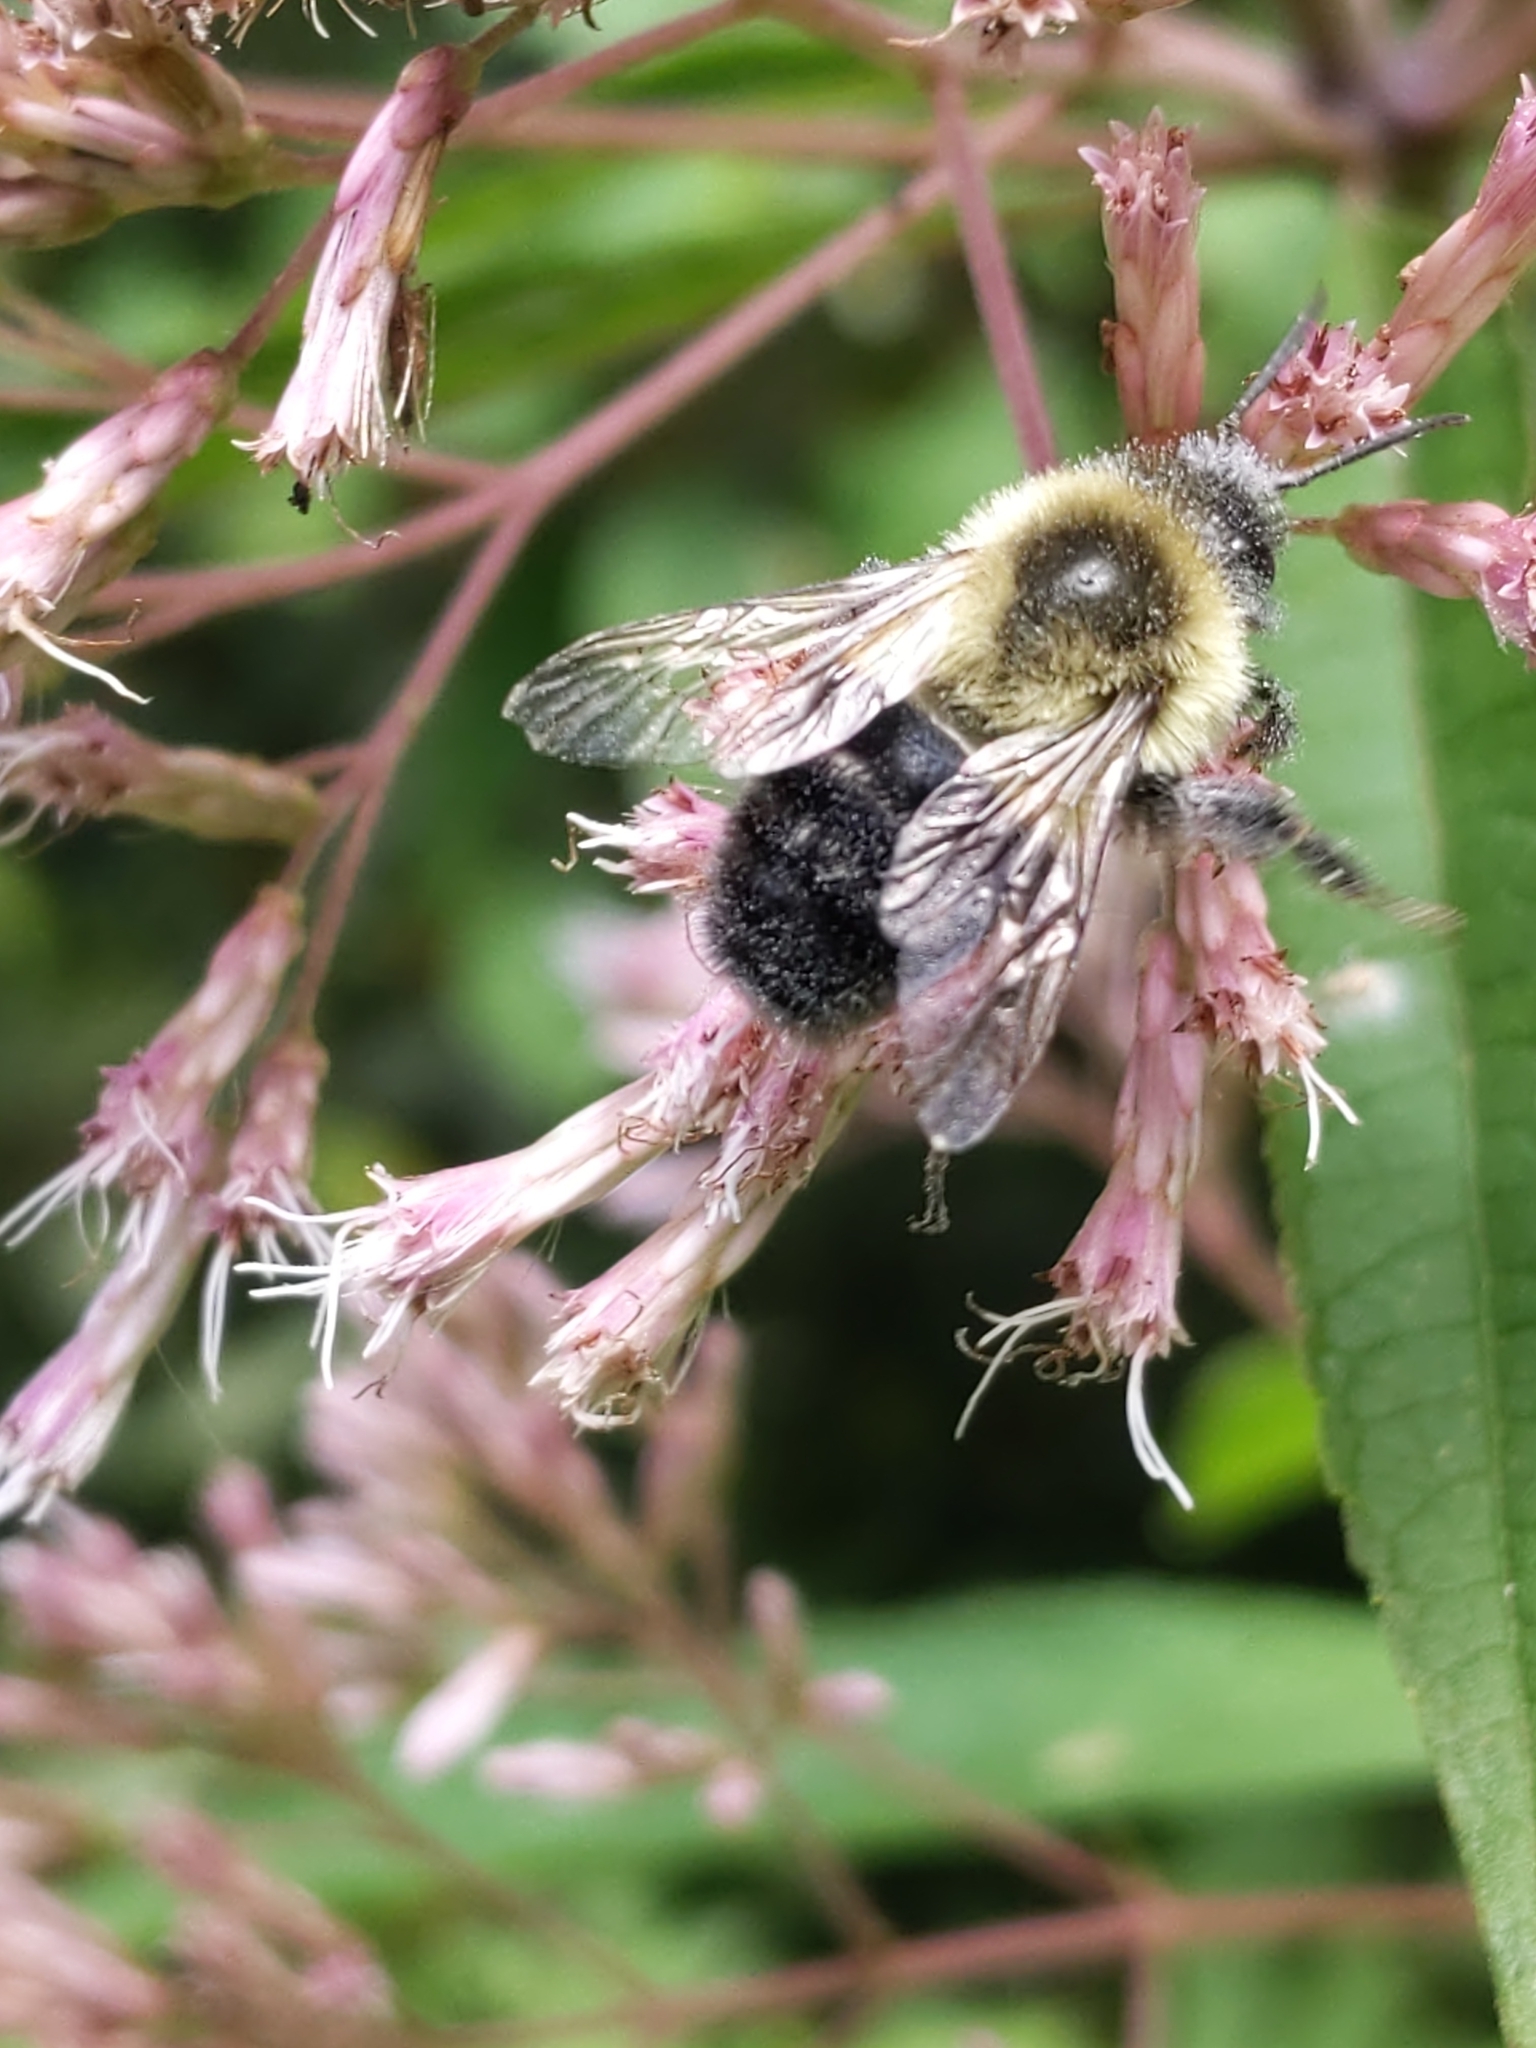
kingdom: Animalia
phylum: Arthropoda
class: Insecta
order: Hymenoptera
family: Apidae
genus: Bombus
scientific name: Bombus impatiens
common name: Common eastern bumble bee
